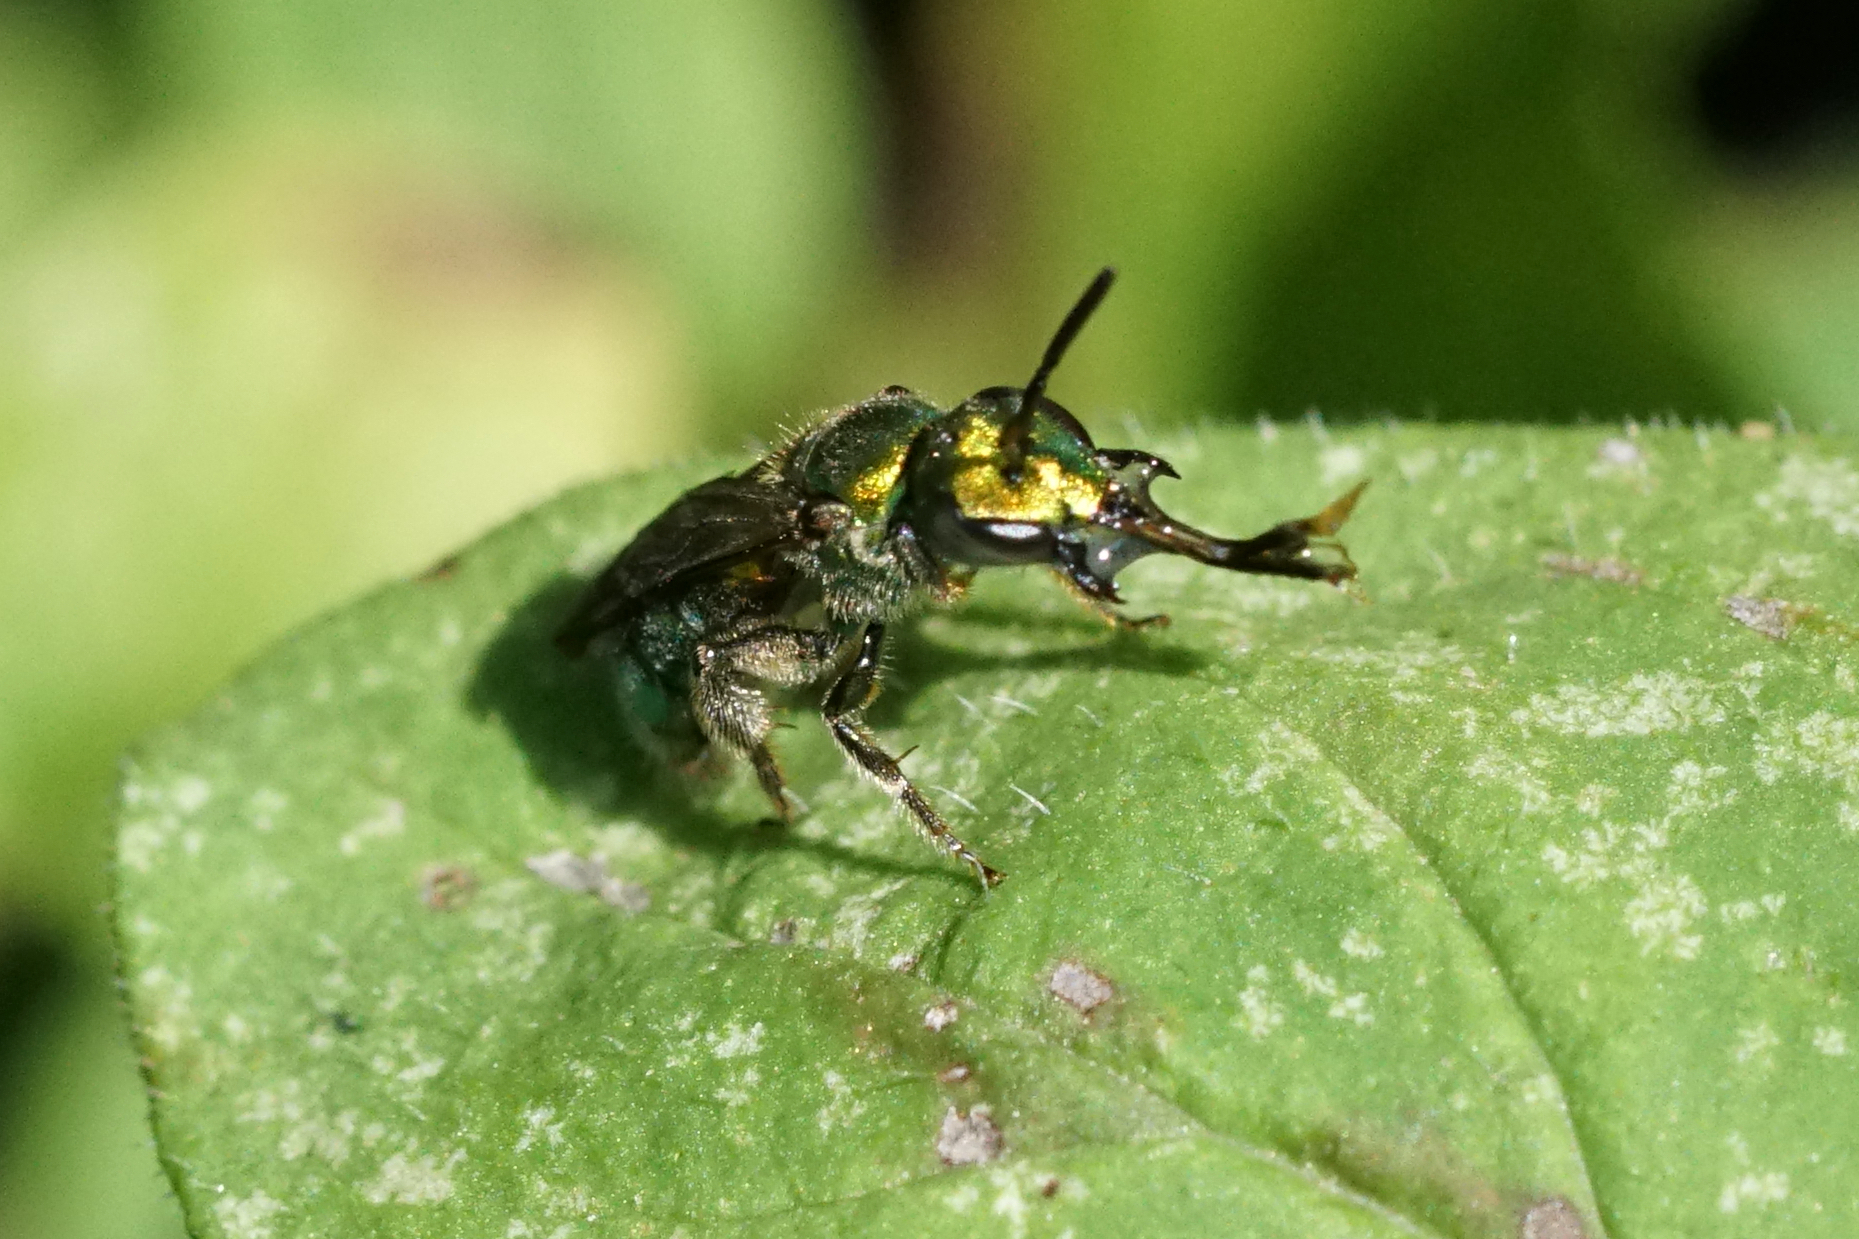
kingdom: Animalia
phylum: Arthropoda
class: Insecta
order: Hymenoptera
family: Halictidae
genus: Augochlora
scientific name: Augochlora pura
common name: Pure green sweat bee
